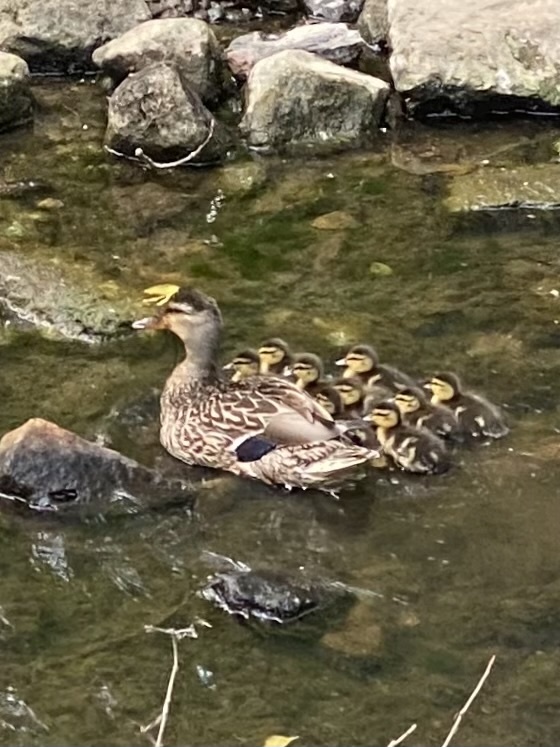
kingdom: Animalia
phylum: Chordata
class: Aves
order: Anseriformes
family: Anatidae
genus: Anas
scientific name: Anas platyrhynchos
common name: Mallard
